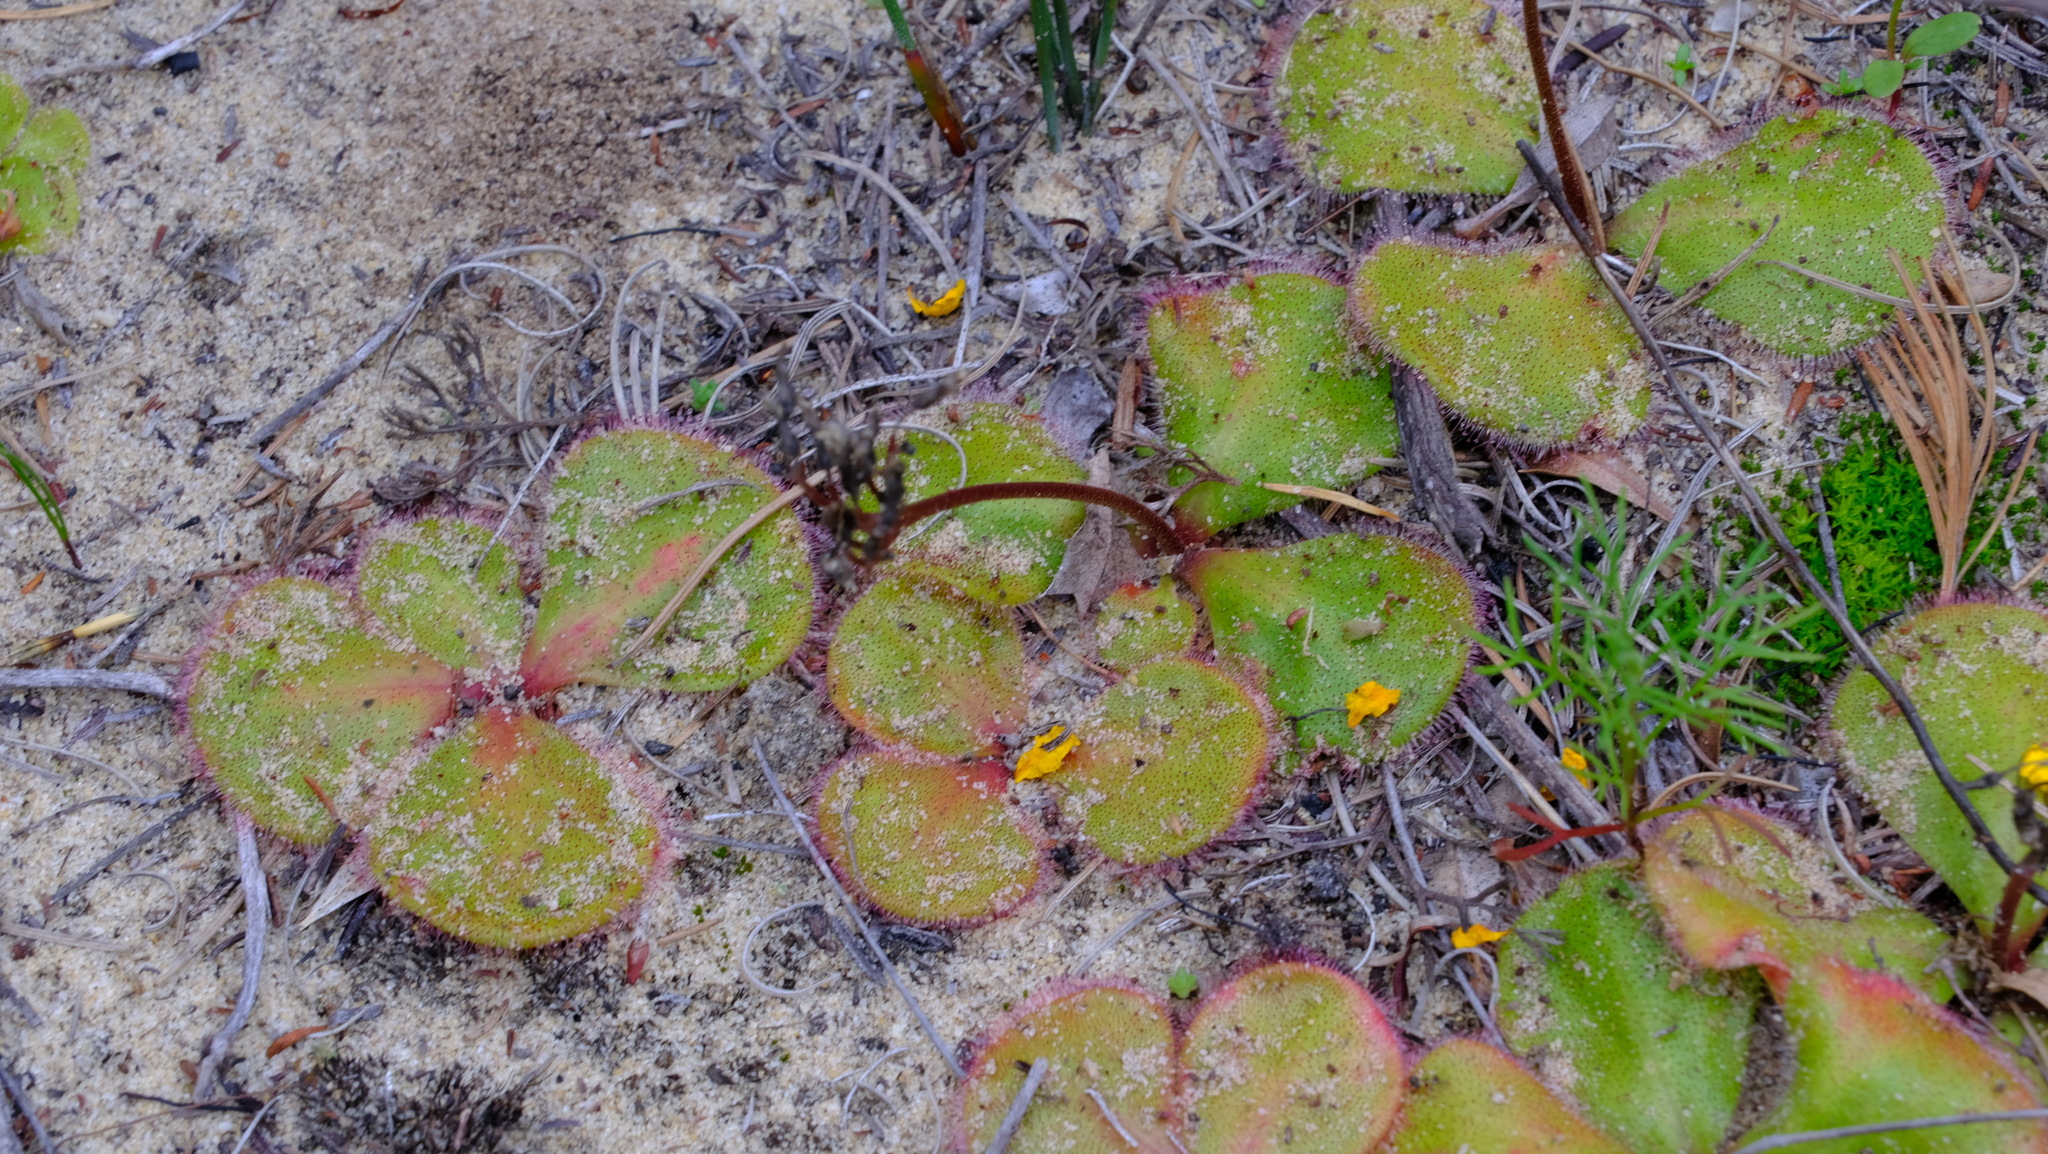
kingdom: Plantae
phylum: Tracheophyta
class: Magnoliopsida
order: Caryophyllales
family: Droseraceae
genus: Drosera
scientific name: Drosera erythrorhiza
